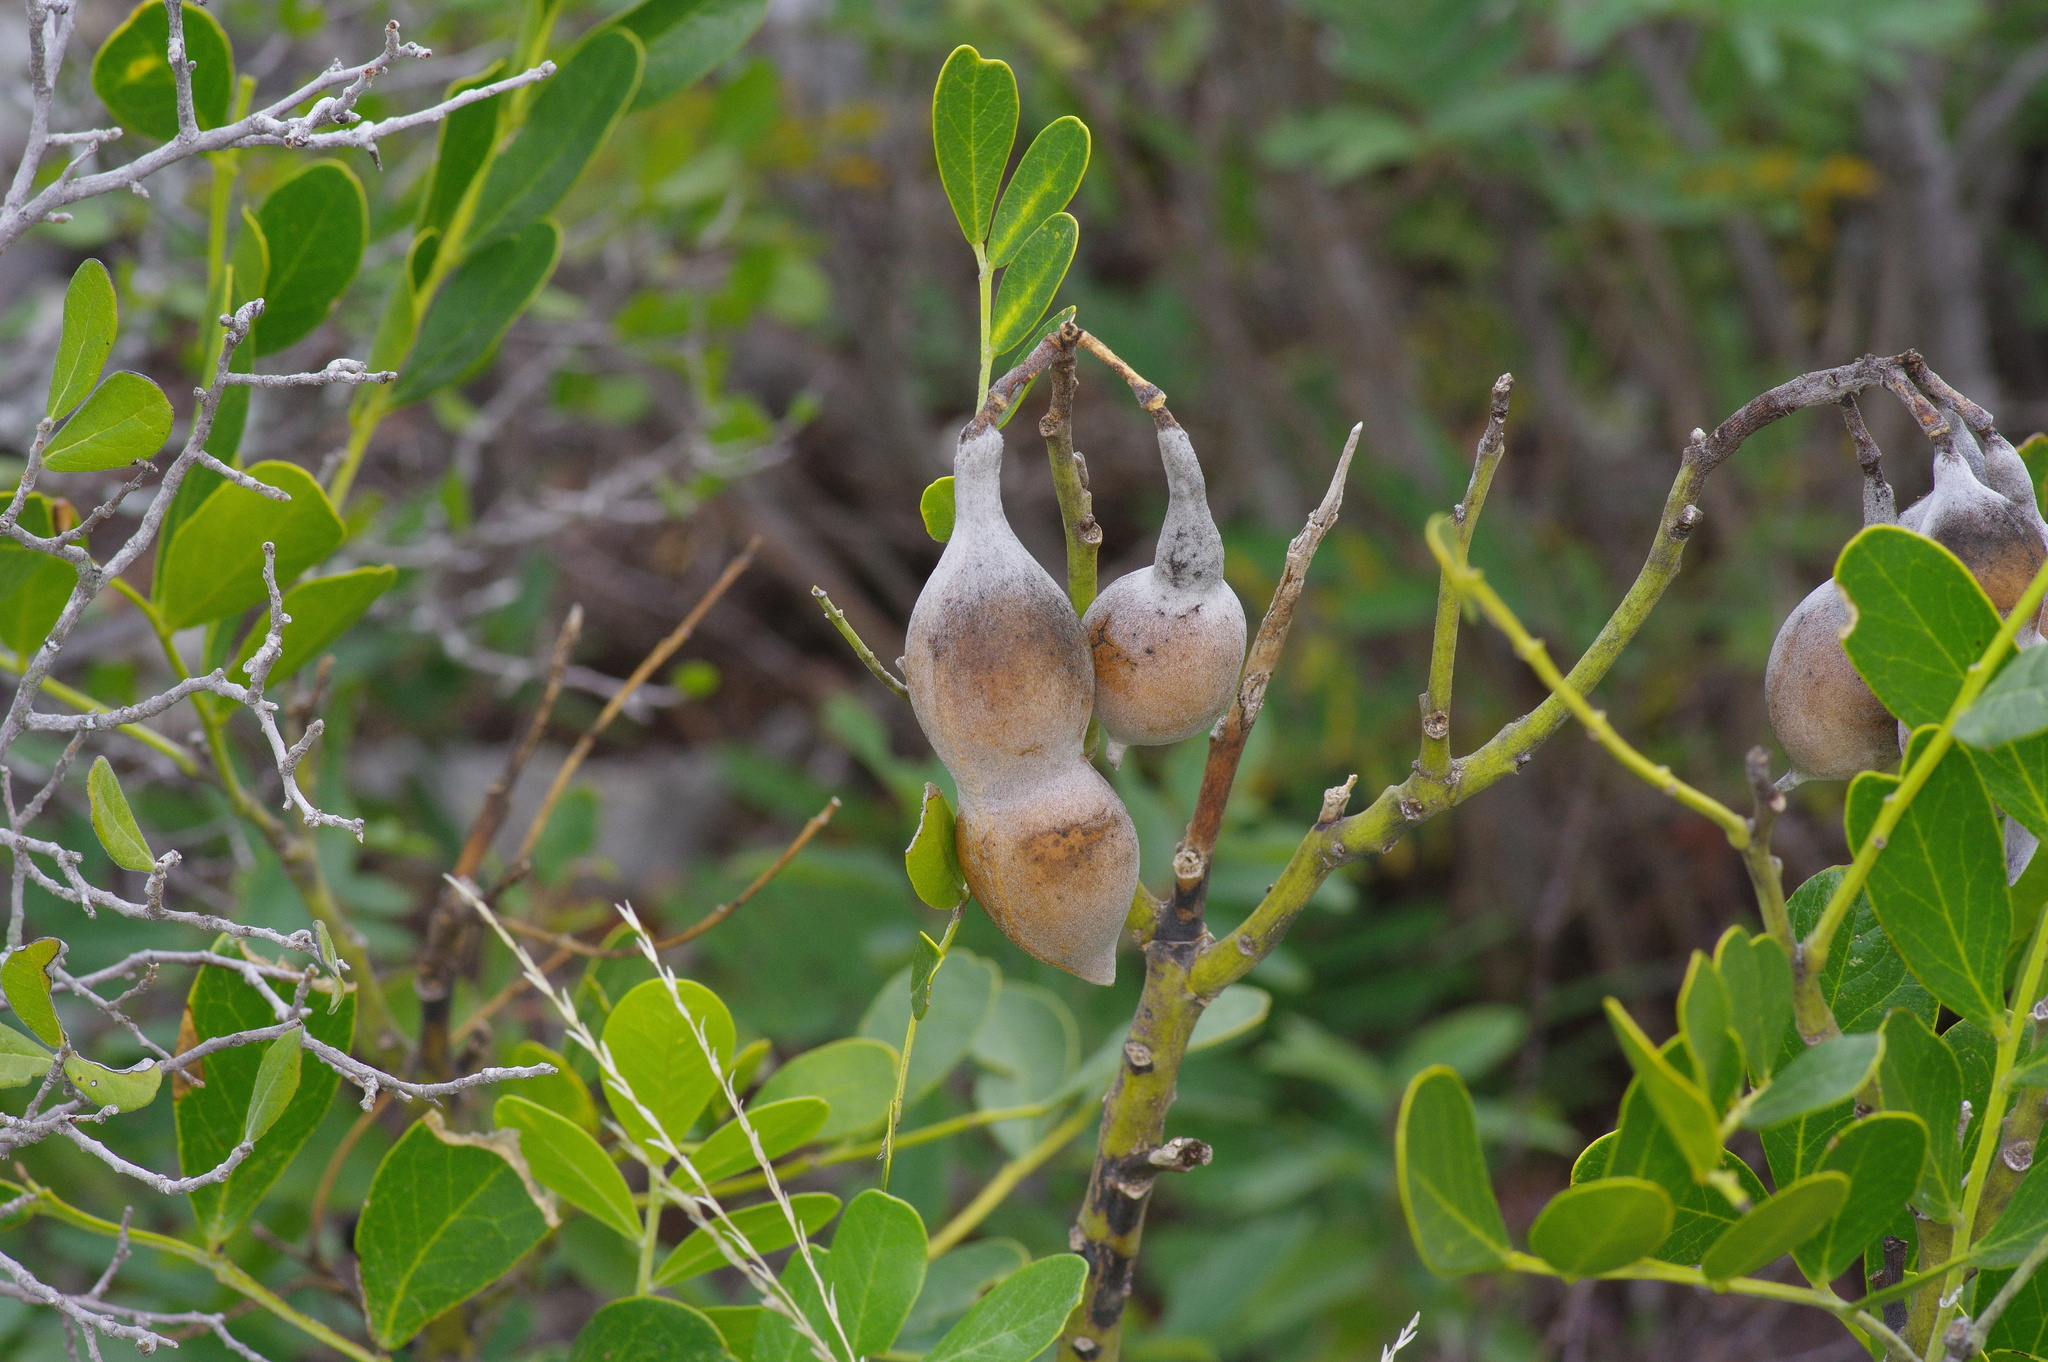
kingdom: Plantae
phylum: Tracheophyta
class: Magnoliopsida
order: Fabales
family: Fabaceae
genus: Dermatophyllum
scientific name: Dermatophyllum secundiflorum
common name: Texas-mountain-laurel
